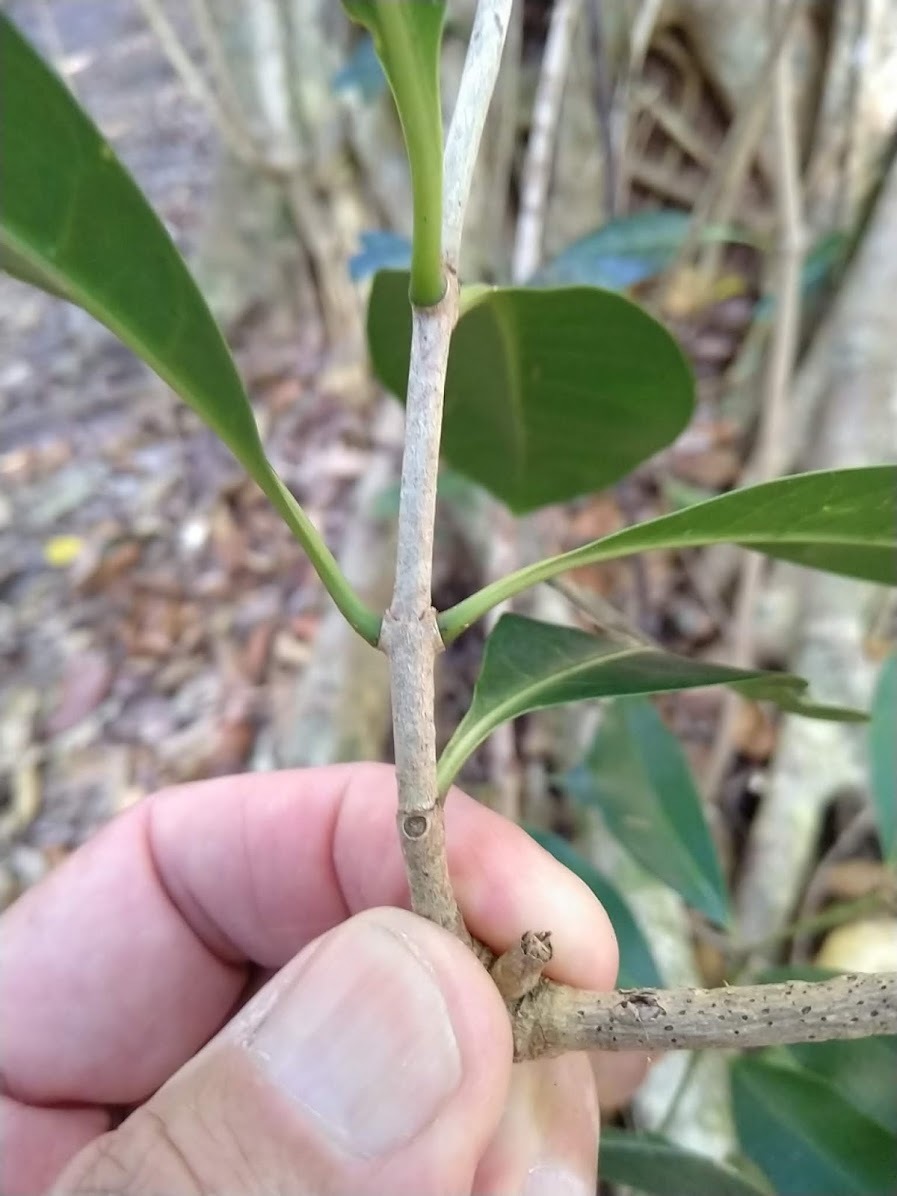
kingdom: Plantae
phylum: Tracheophyta
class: Magnoliopsida
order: Gentianales
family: Rubiaceae
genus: Coelospermum
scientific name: Coelospermum paniculatum
